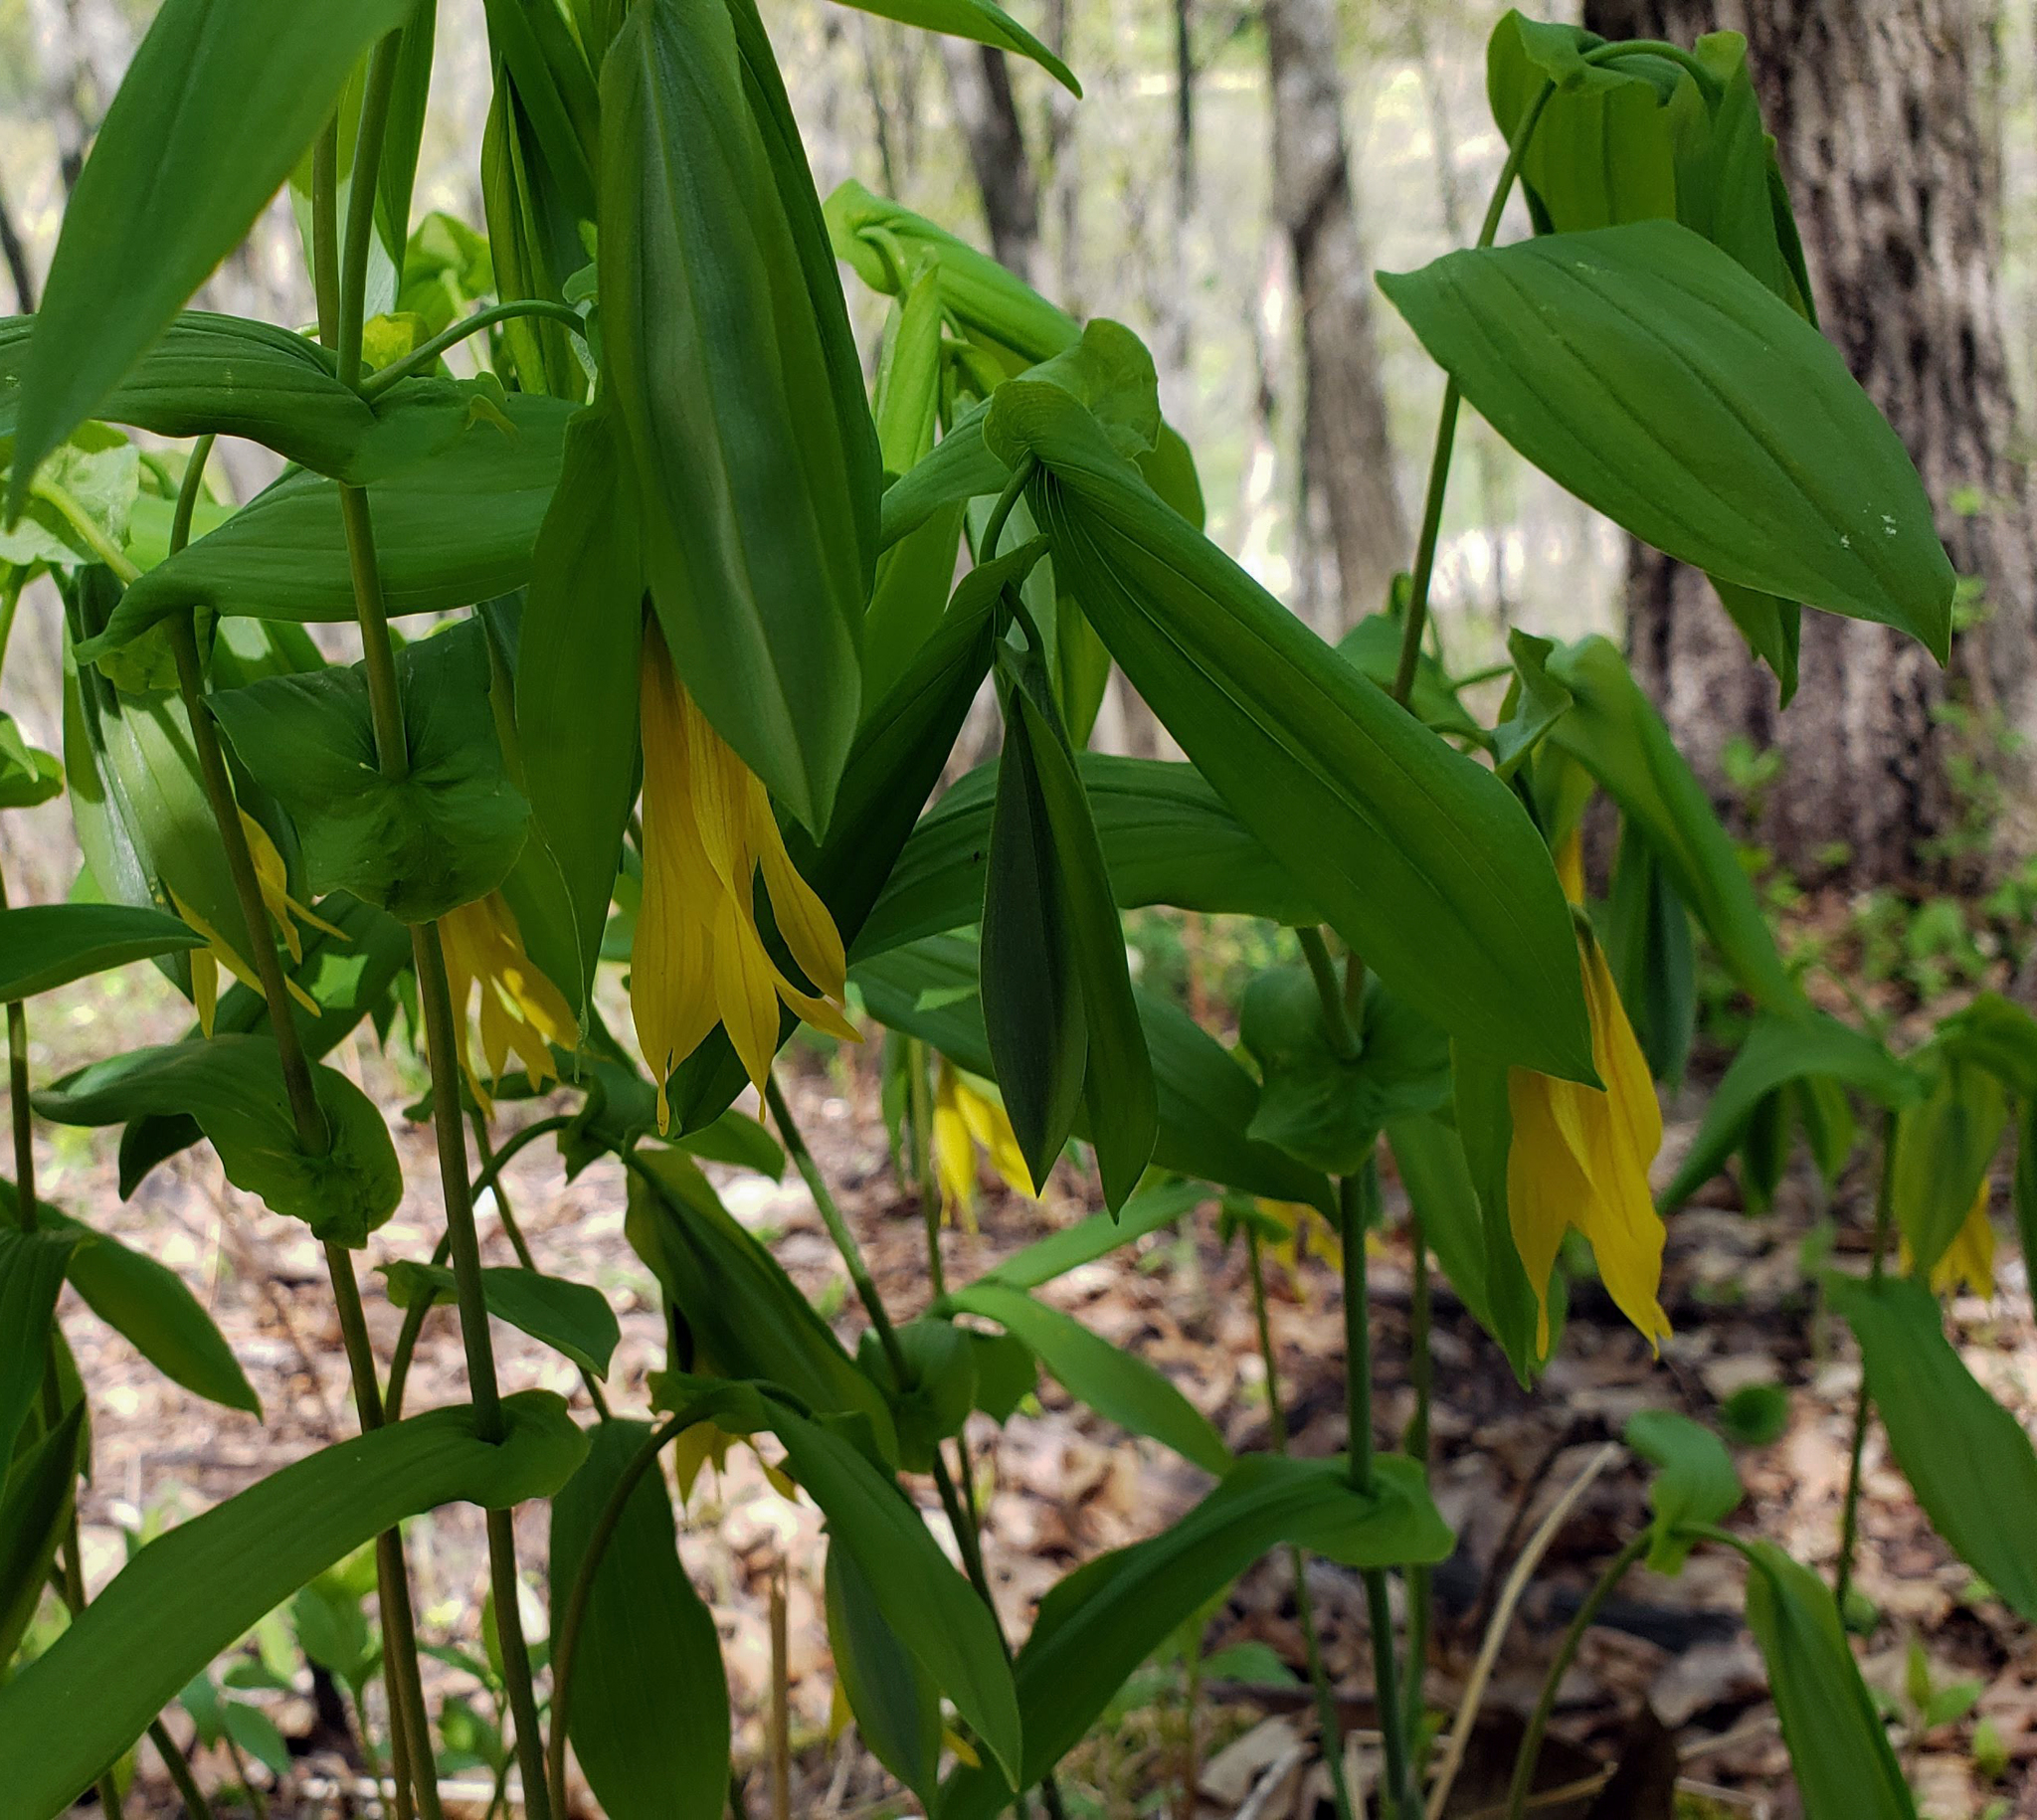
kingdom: Plantae
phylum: Tracheophyta
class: Liliopsida
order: Liliales
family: Colchicaceae
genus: Uvularia
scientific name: Uvularia grandiflora
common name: Bellwort
